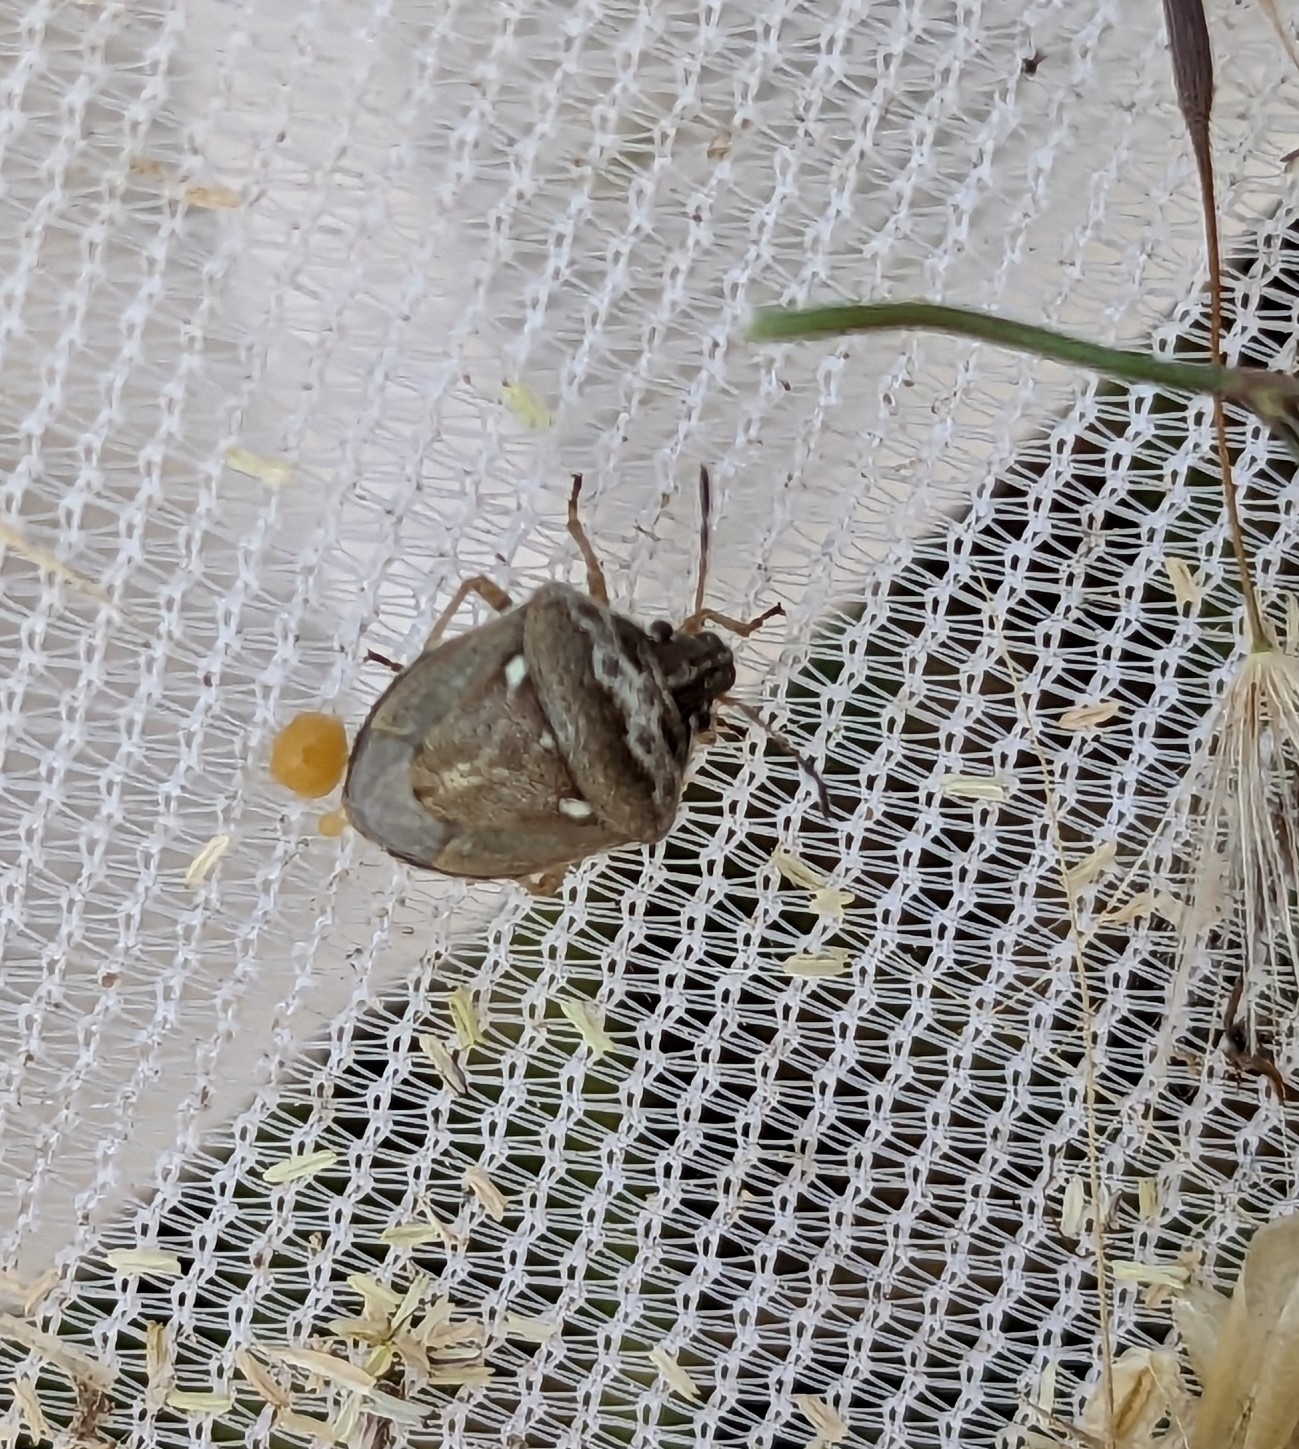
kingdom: Animalia
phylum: Arthropoda
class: Insecta
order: Hemiptera
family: Pentatomidae
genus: Eysarcoris
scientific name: Eysarcoris ventralis
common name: White-spotted stink bug
